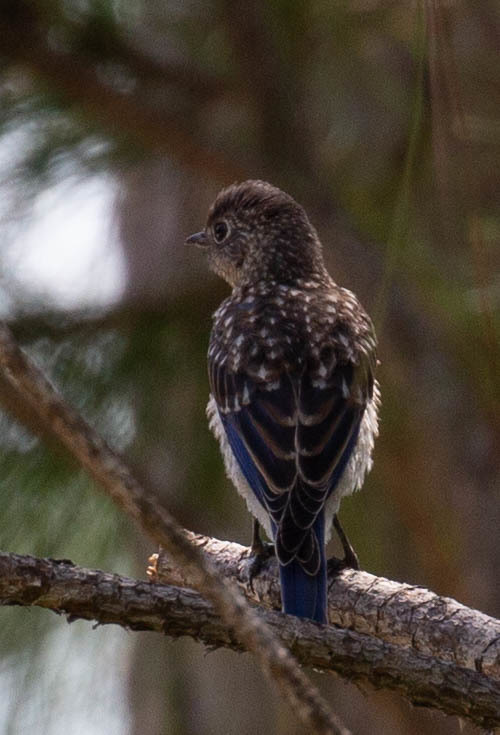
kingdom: Animalia
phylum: Chordata
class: Aves
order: Passeriformes
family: Turdidae
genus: Sialia
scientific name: Sialia sialis
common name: Eastern bluebird
